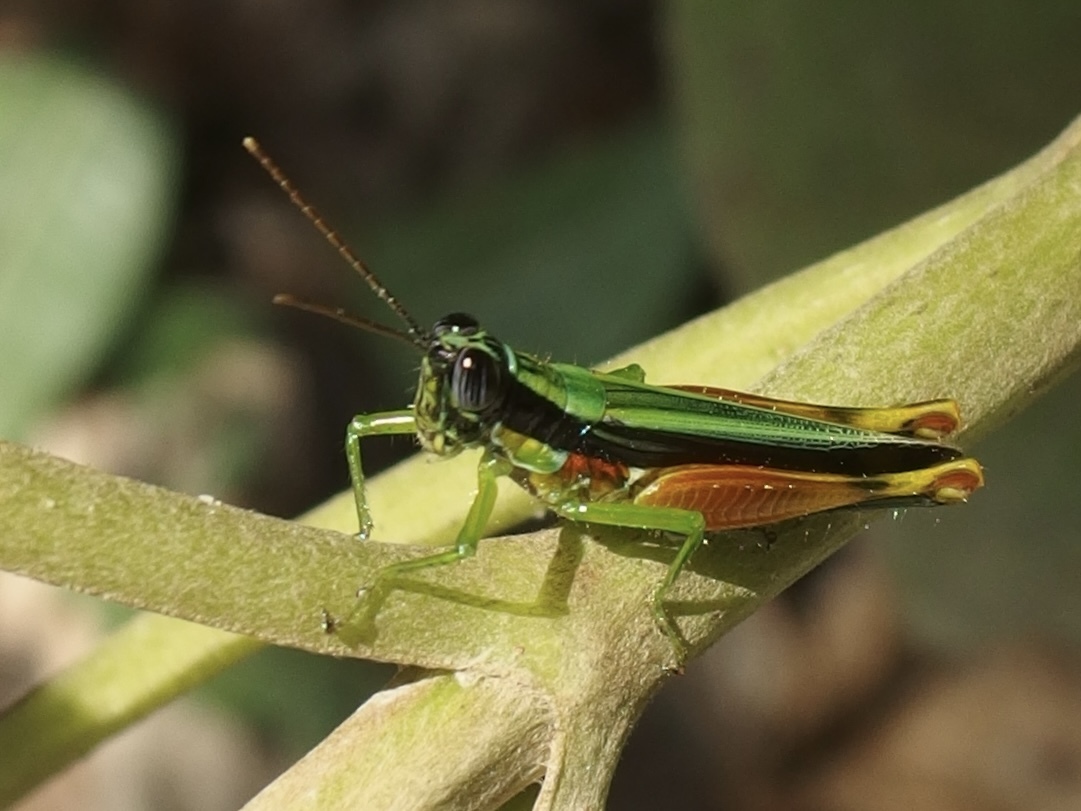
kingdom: Animalia
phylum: Arthropoda
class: Insecta
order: Orthoptera
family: Acrididae
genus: Stenopola
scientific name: Stenopola boliviana
